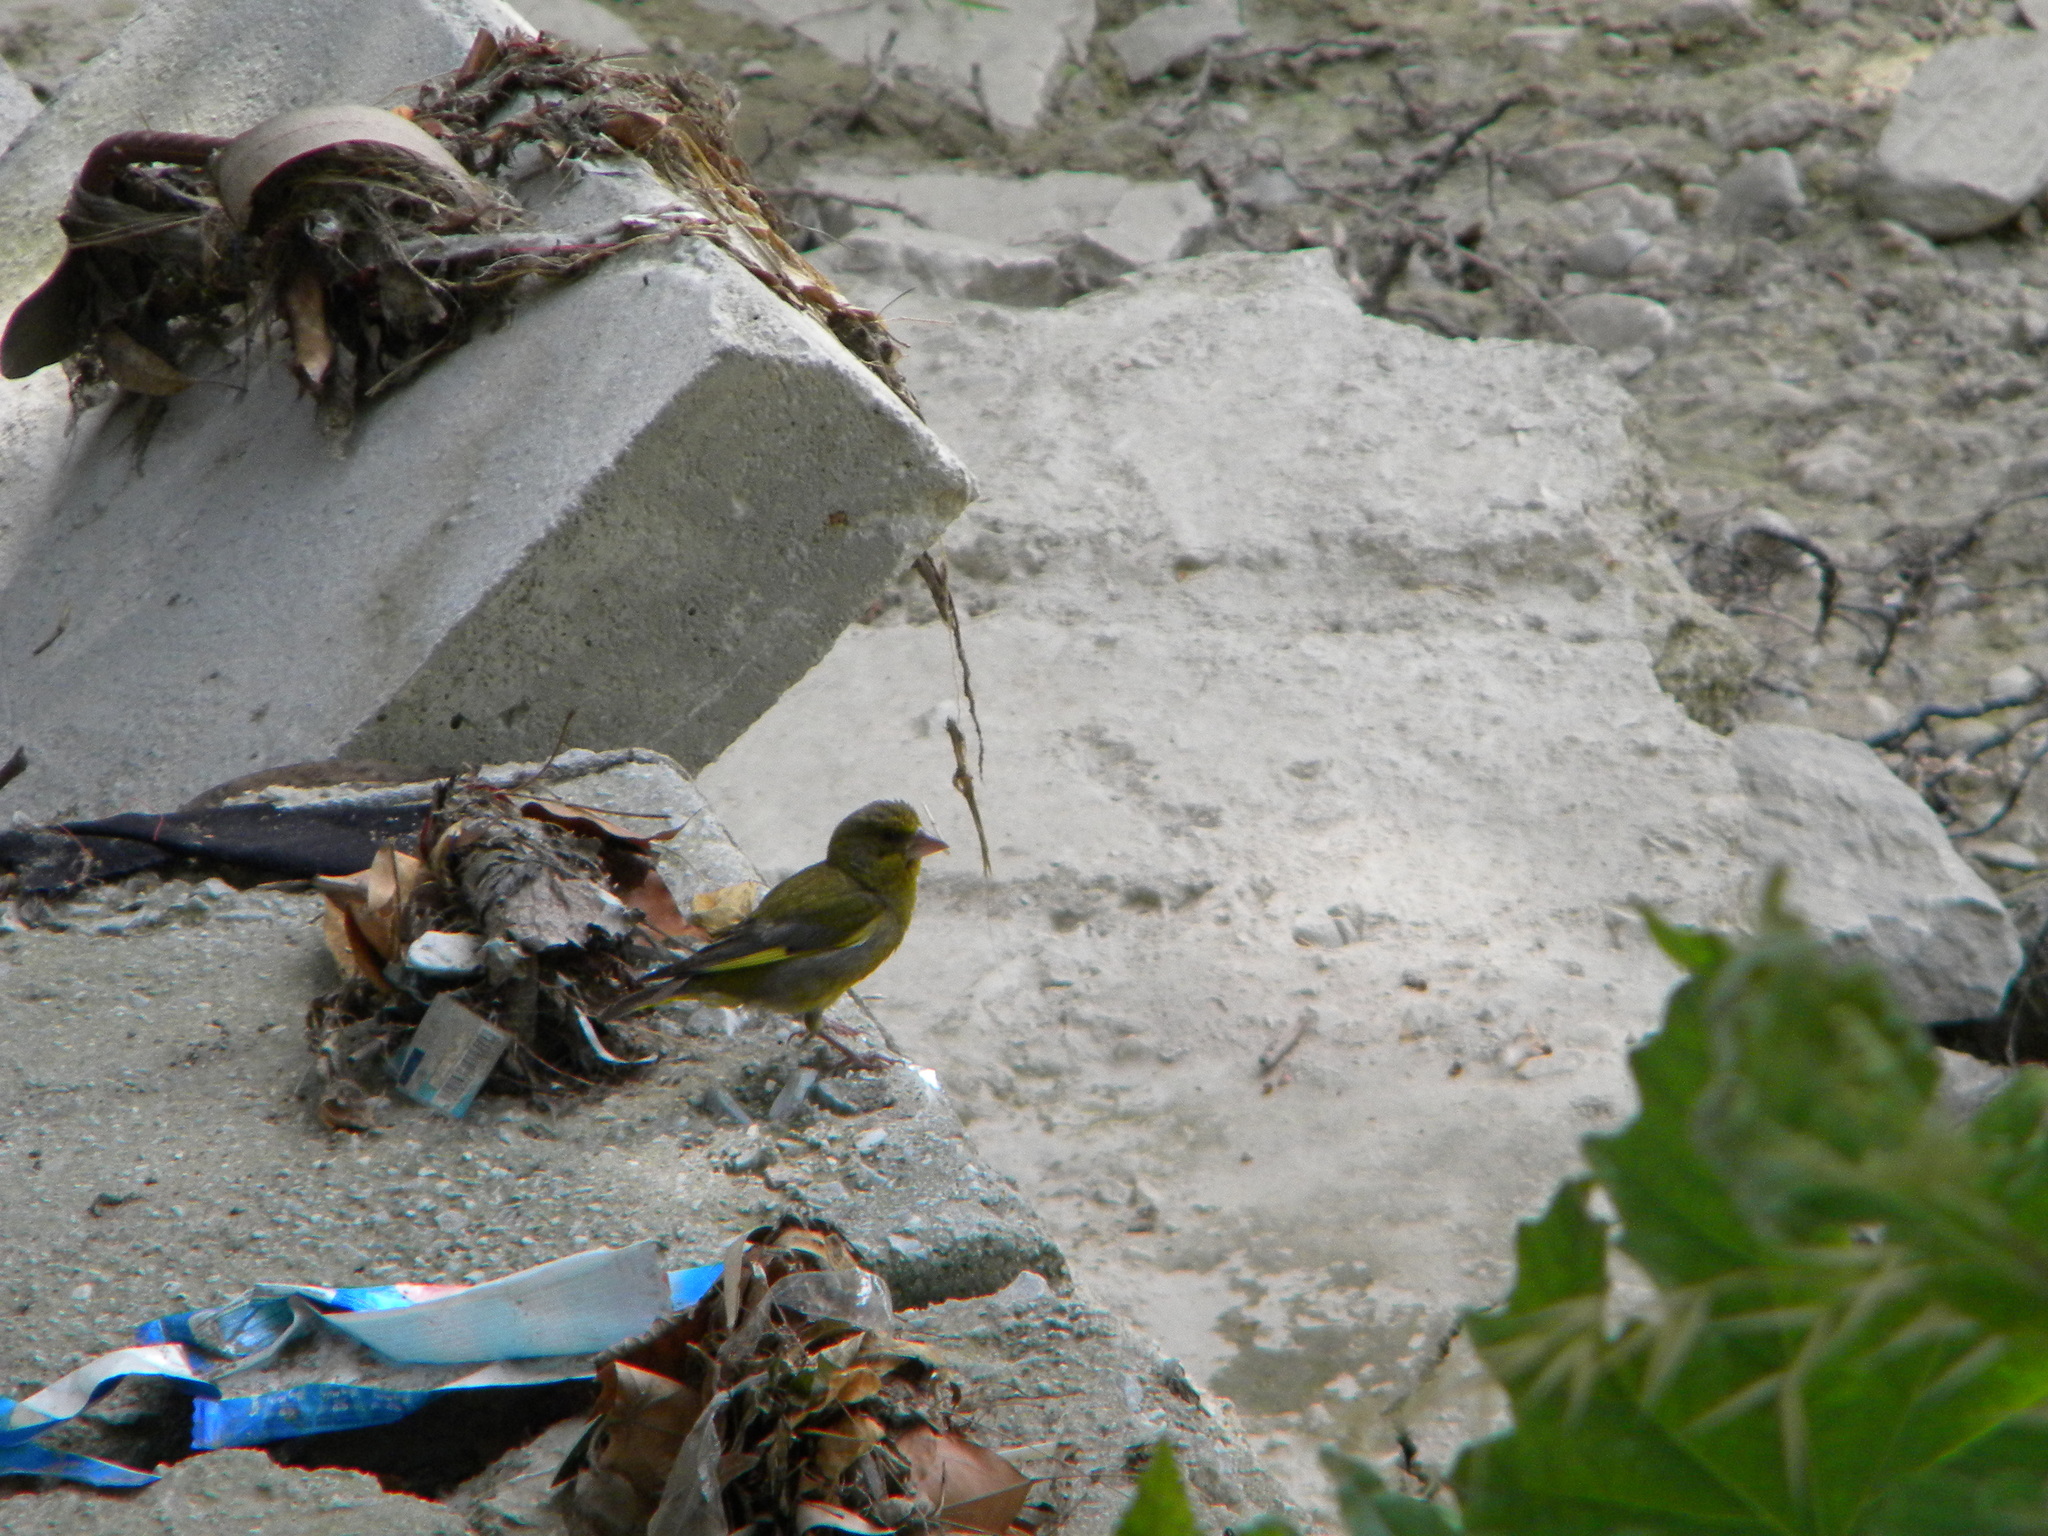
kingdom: Plantae
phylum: Tracheophyta
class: Liliopsida
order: Poales
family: Poaceae
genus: Chloris
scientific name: Chloris chloris
